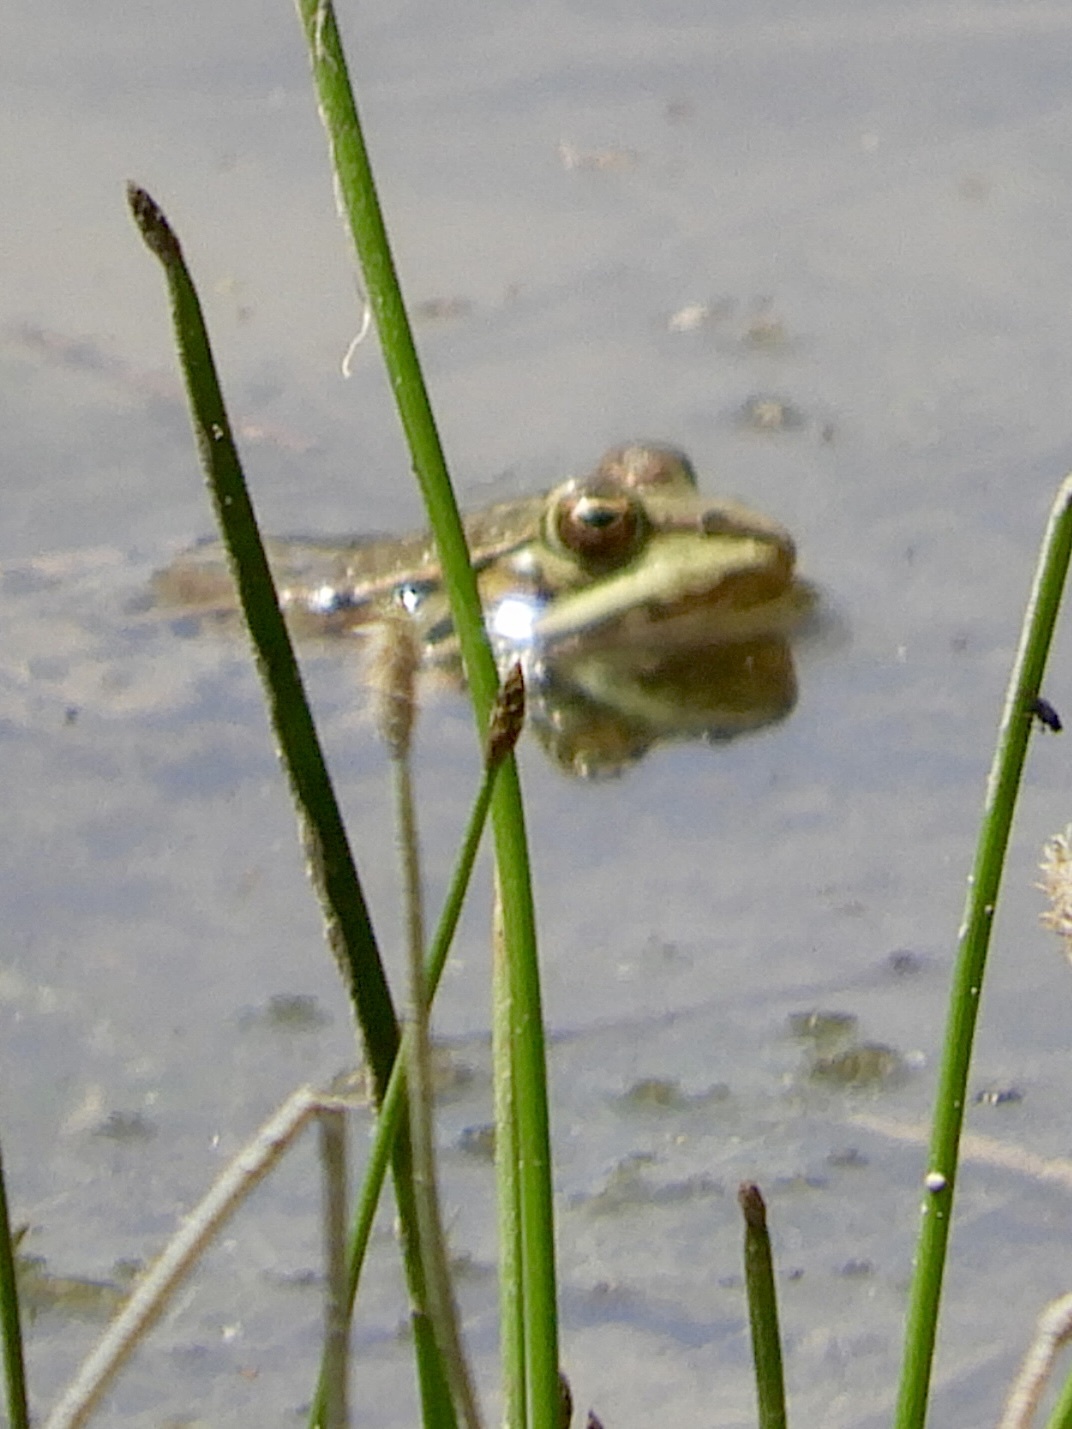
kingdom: Animalia
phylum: Chordata
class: Amphibia
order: Anura
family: Ranidae
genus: Pelophylax
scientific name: Pelophylax
